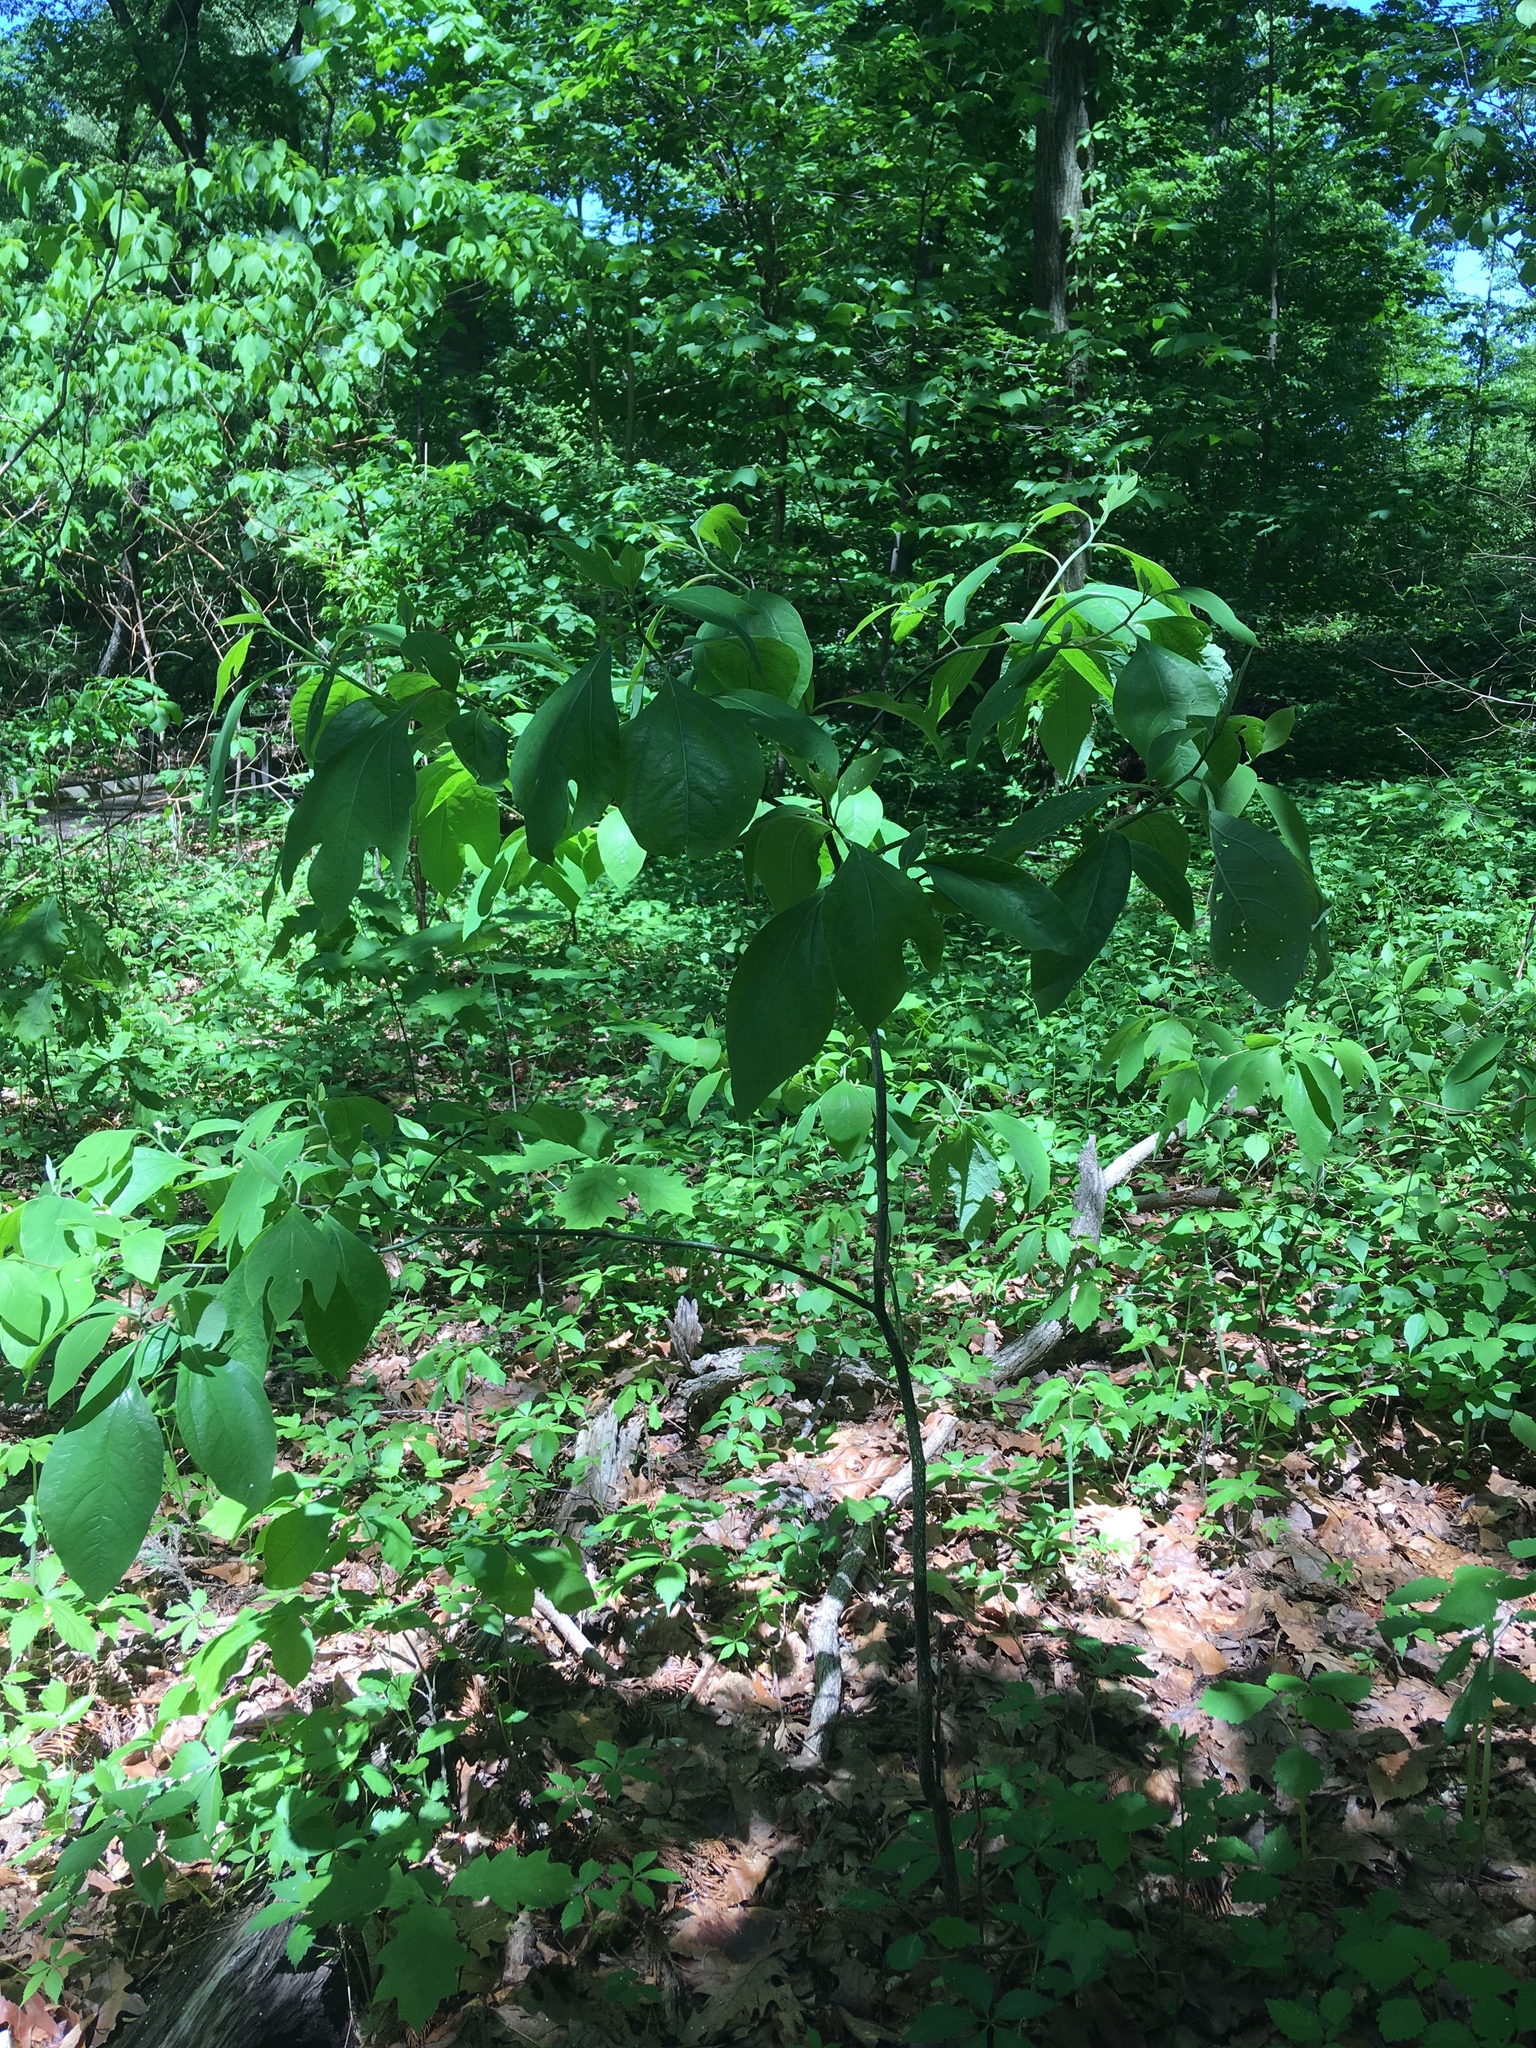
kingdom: Plantae
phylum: Tracheophyta
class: Magnoliopsida
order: Laurales
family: Lauraceae
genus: Sassafras
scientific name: Sassafras albidum
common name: Sassafras
